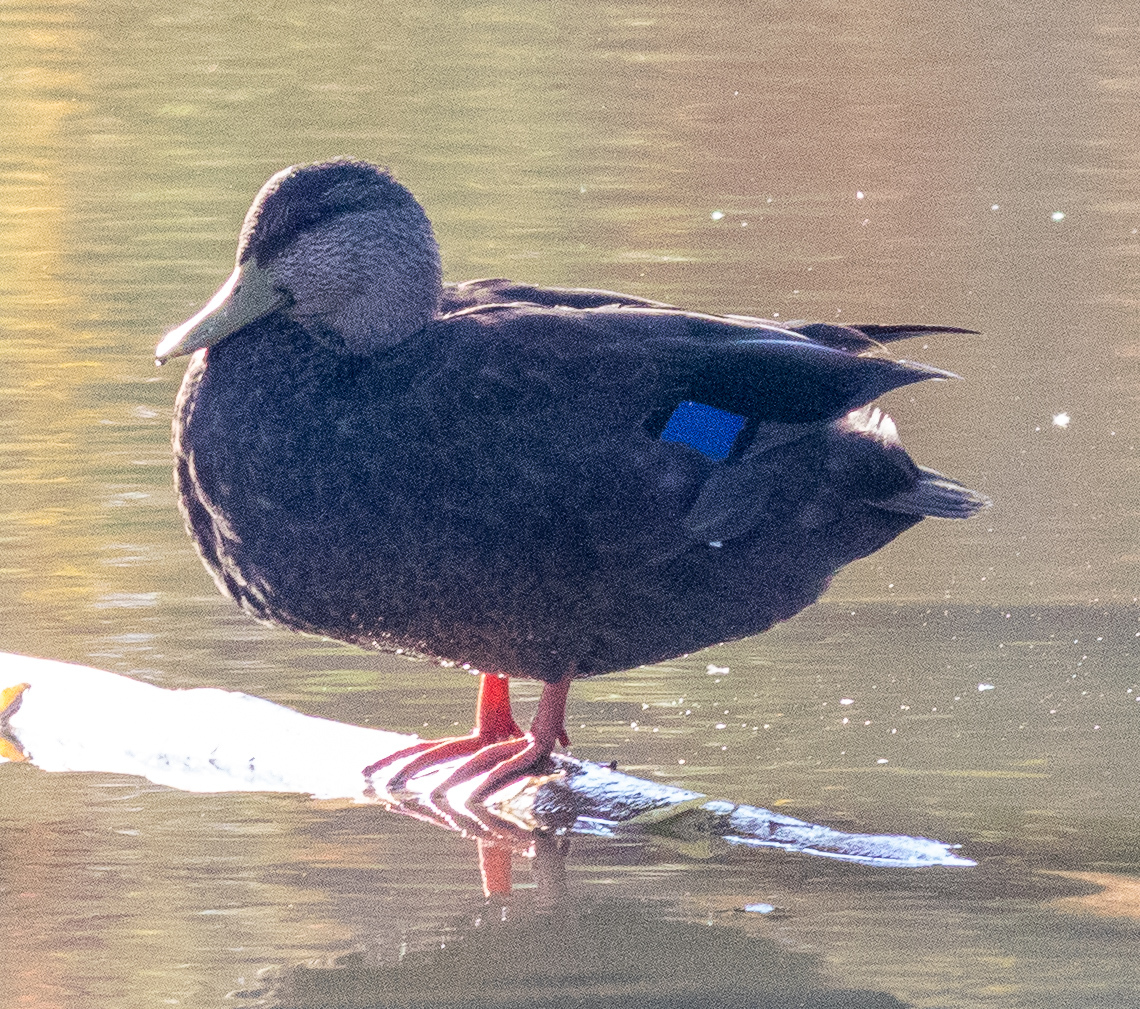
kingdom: Animalia
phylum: Chordata
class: Aves
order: Anseriformes
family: Anatidae
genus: Anas
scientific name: Anas rubripes
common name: American black duck
